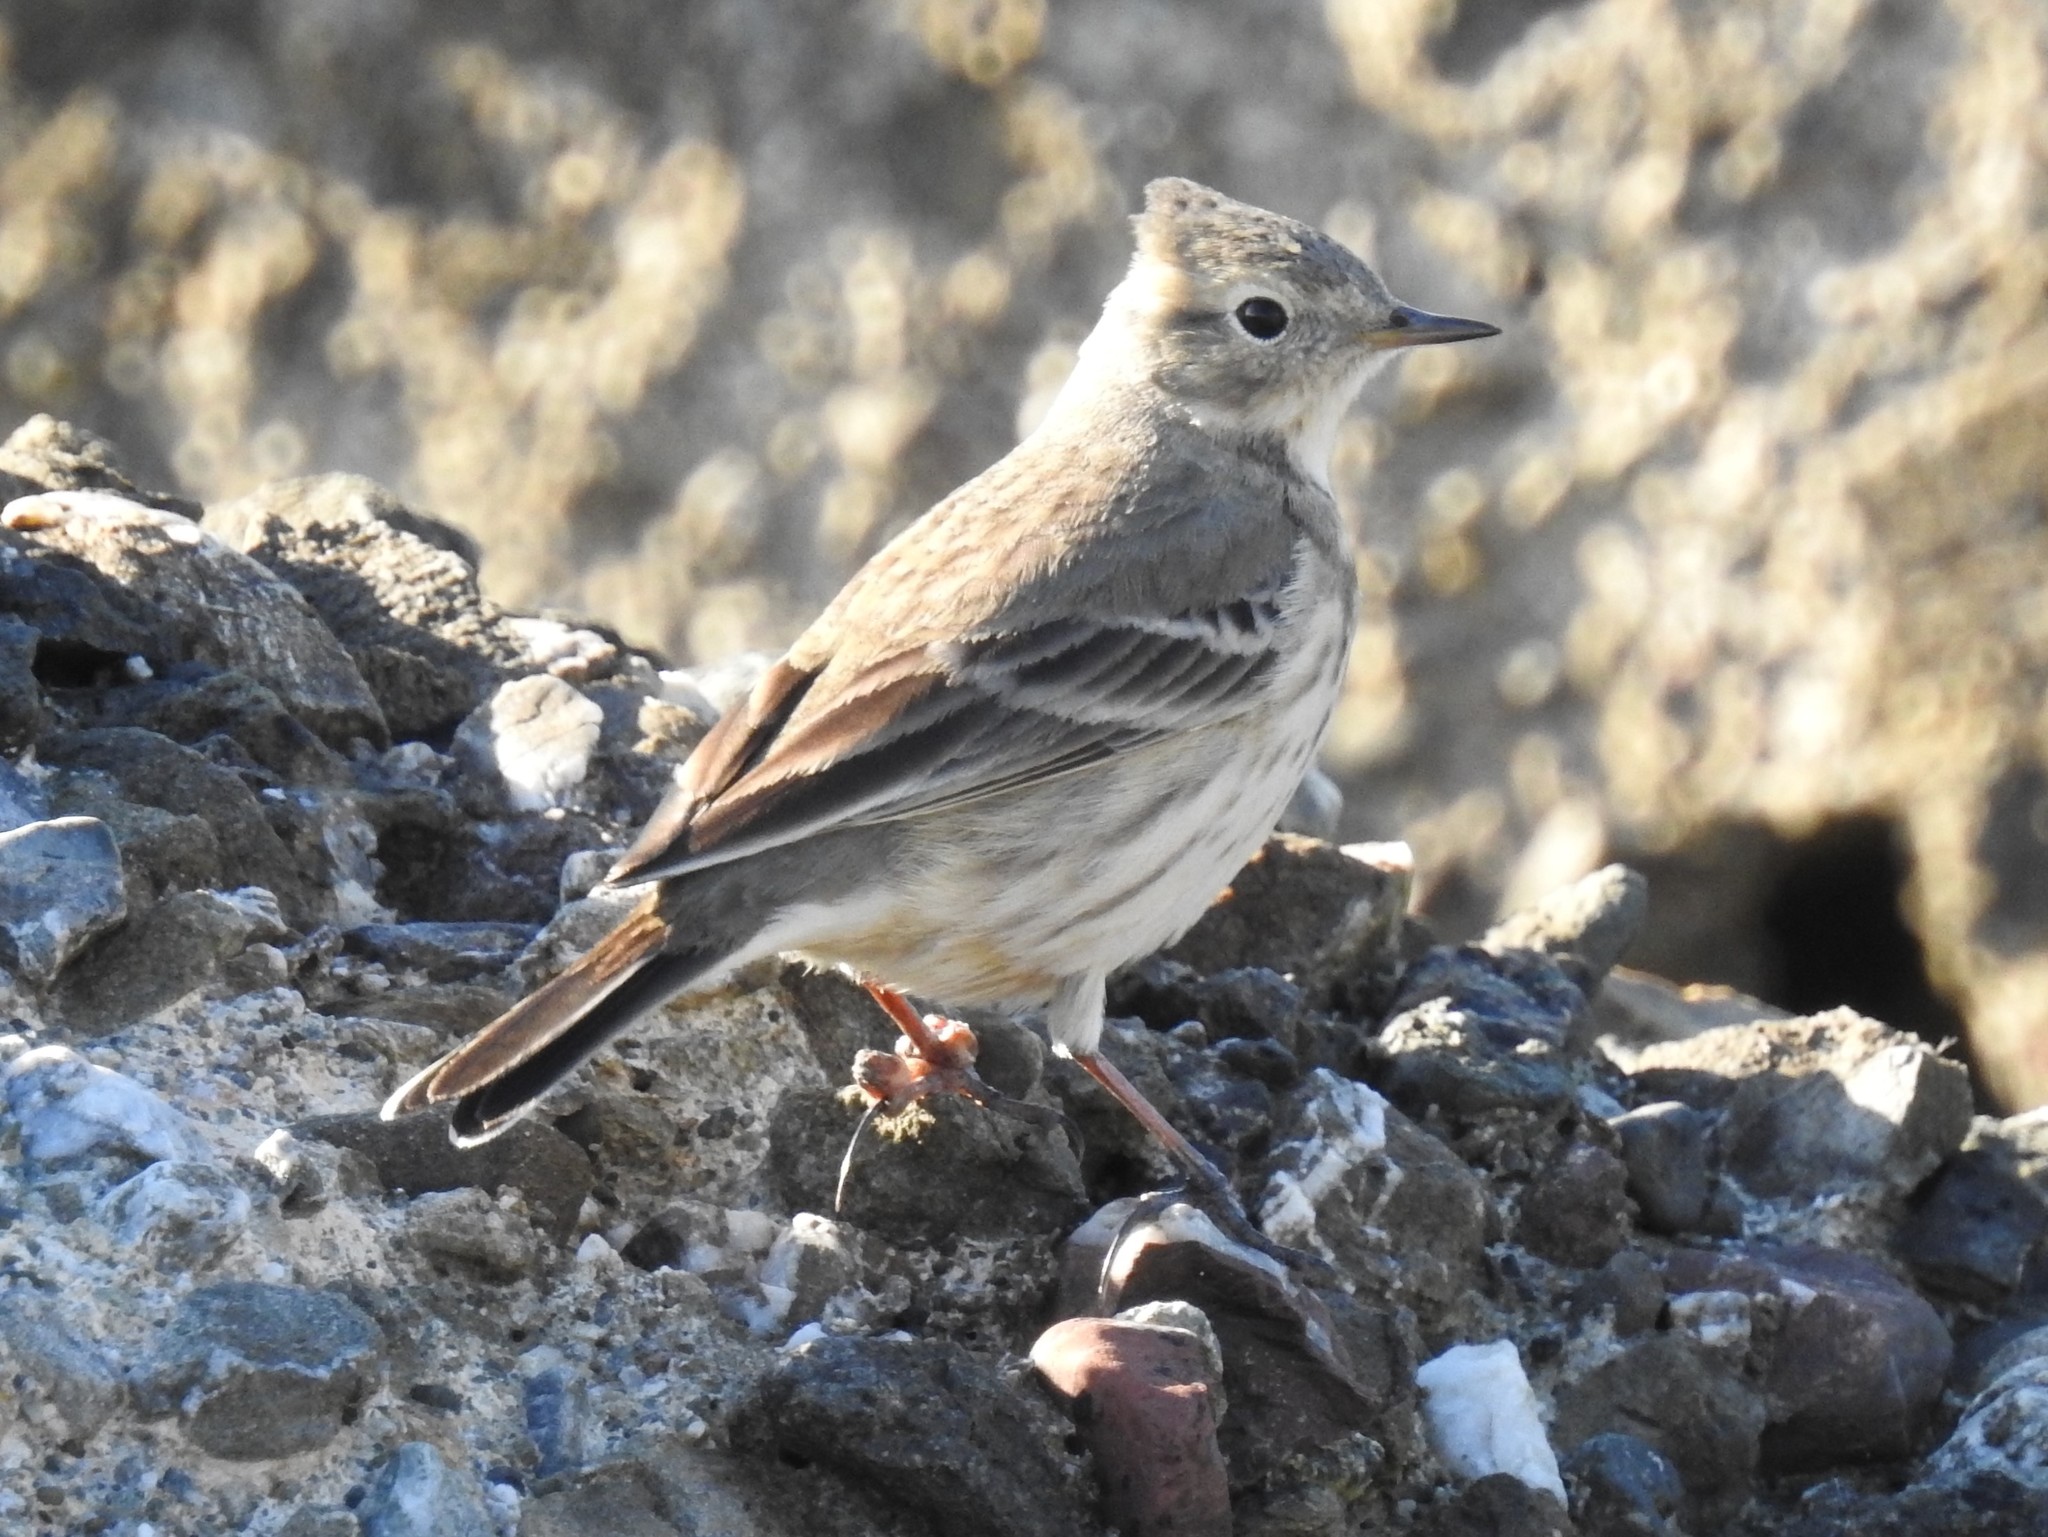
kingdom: Animalia
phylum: Chordata
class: Aves
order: Passeriformes
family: Motacillidae
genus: Anthus
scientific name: Anthus rubescens
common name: Buff-bellied pipit
